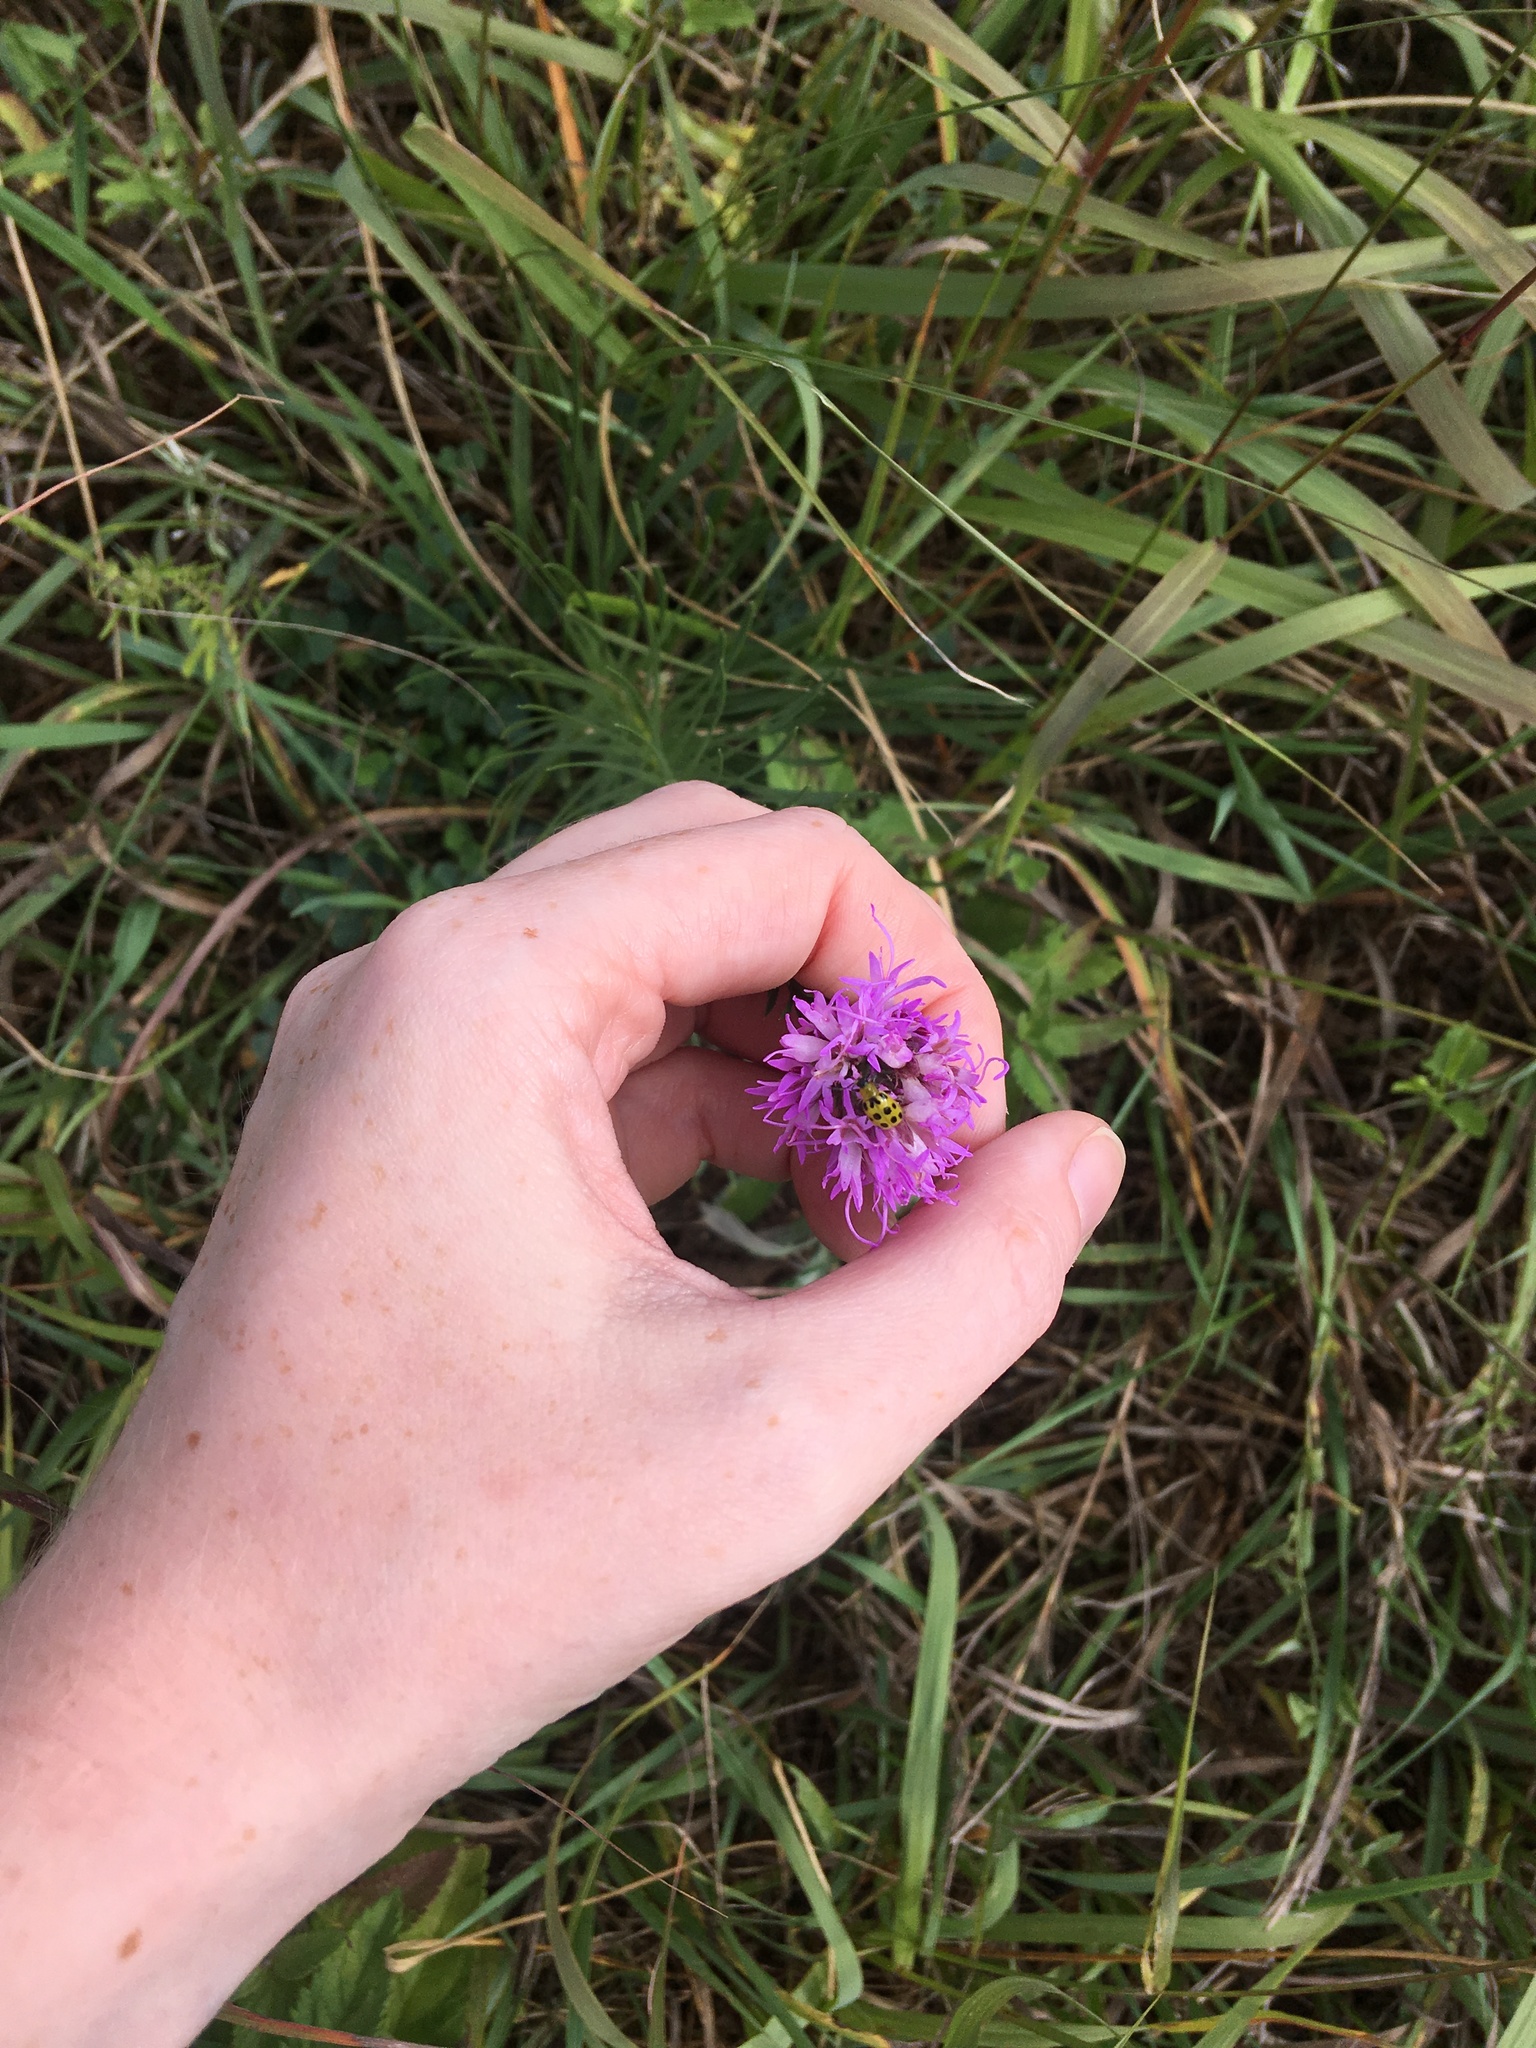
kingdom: Animalia
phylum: Arthropoda
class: Insecta
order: Coleoptera
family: Chrysomelidae
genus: Diabrotica
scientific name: Diabrotica undecimpunctata
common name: Spotted cucumber beetle
